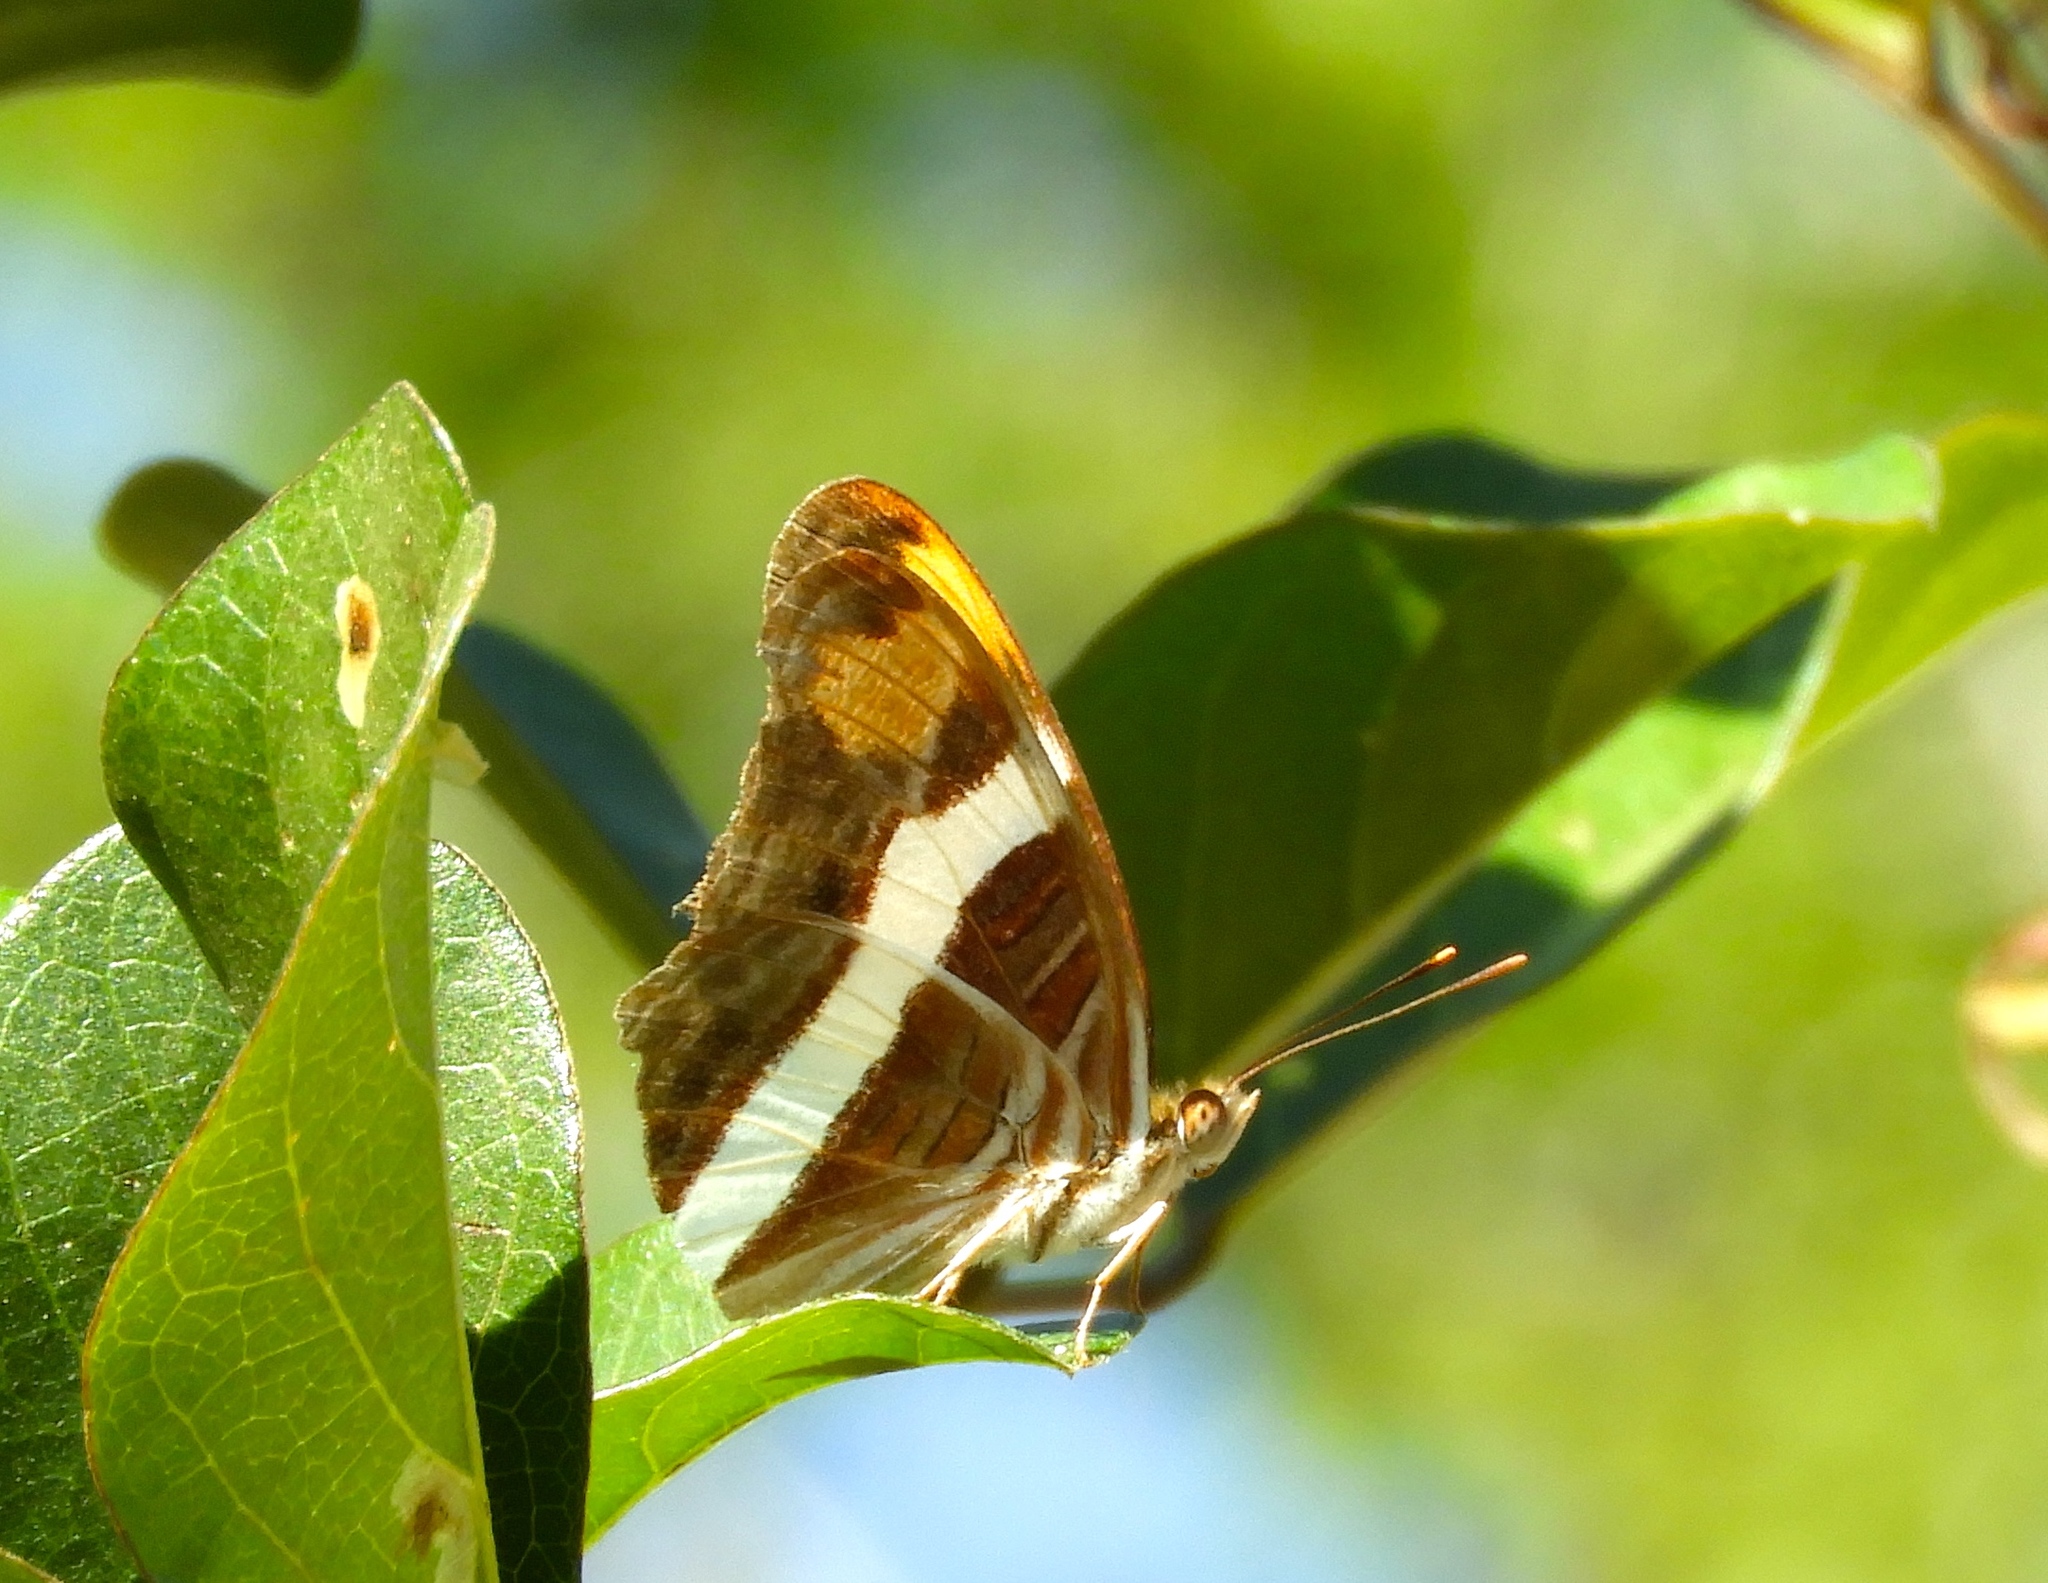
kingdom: Animalia
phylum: Arthropoda
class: Insecta
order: Lepidoptera
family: Nymphalidae
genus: Limenitis
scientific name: Limenitis fessonia
